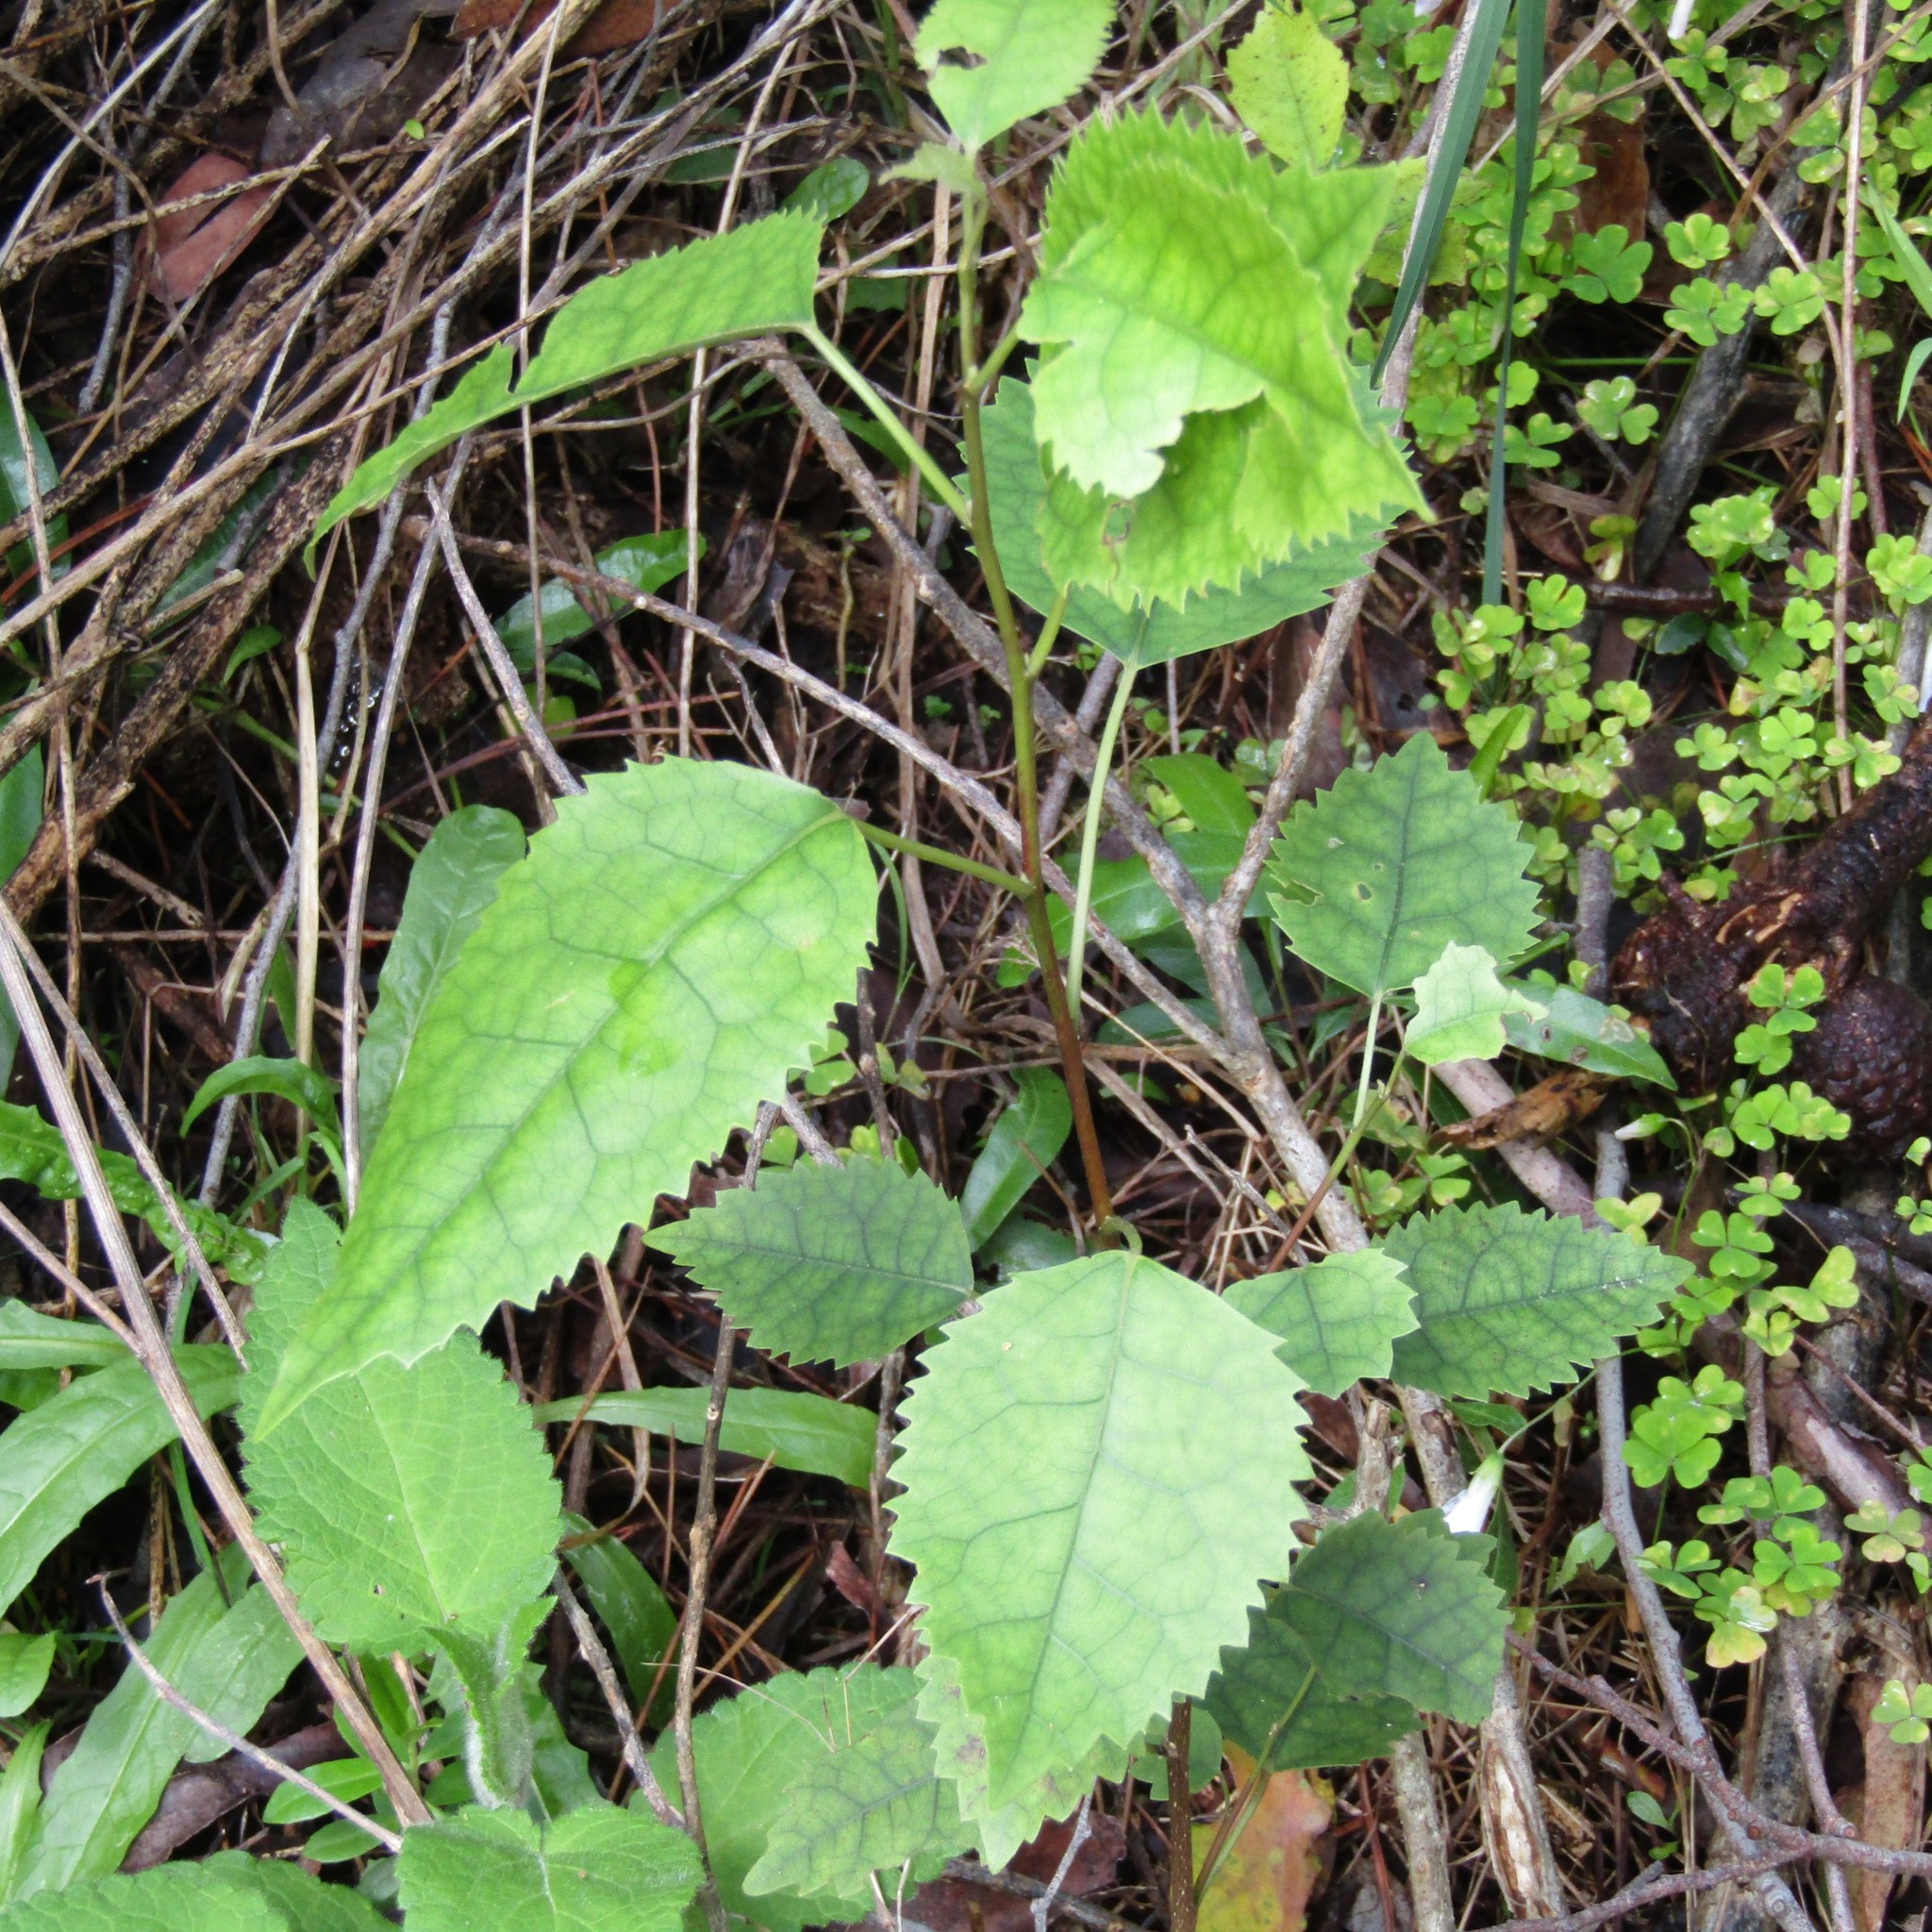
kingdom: Plantae
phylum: Tracheophyta
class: Magnoliopsida
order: Malvales
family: Malvaceae
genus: Hoheria
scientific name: Hoheria populnea
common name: Lacebark
